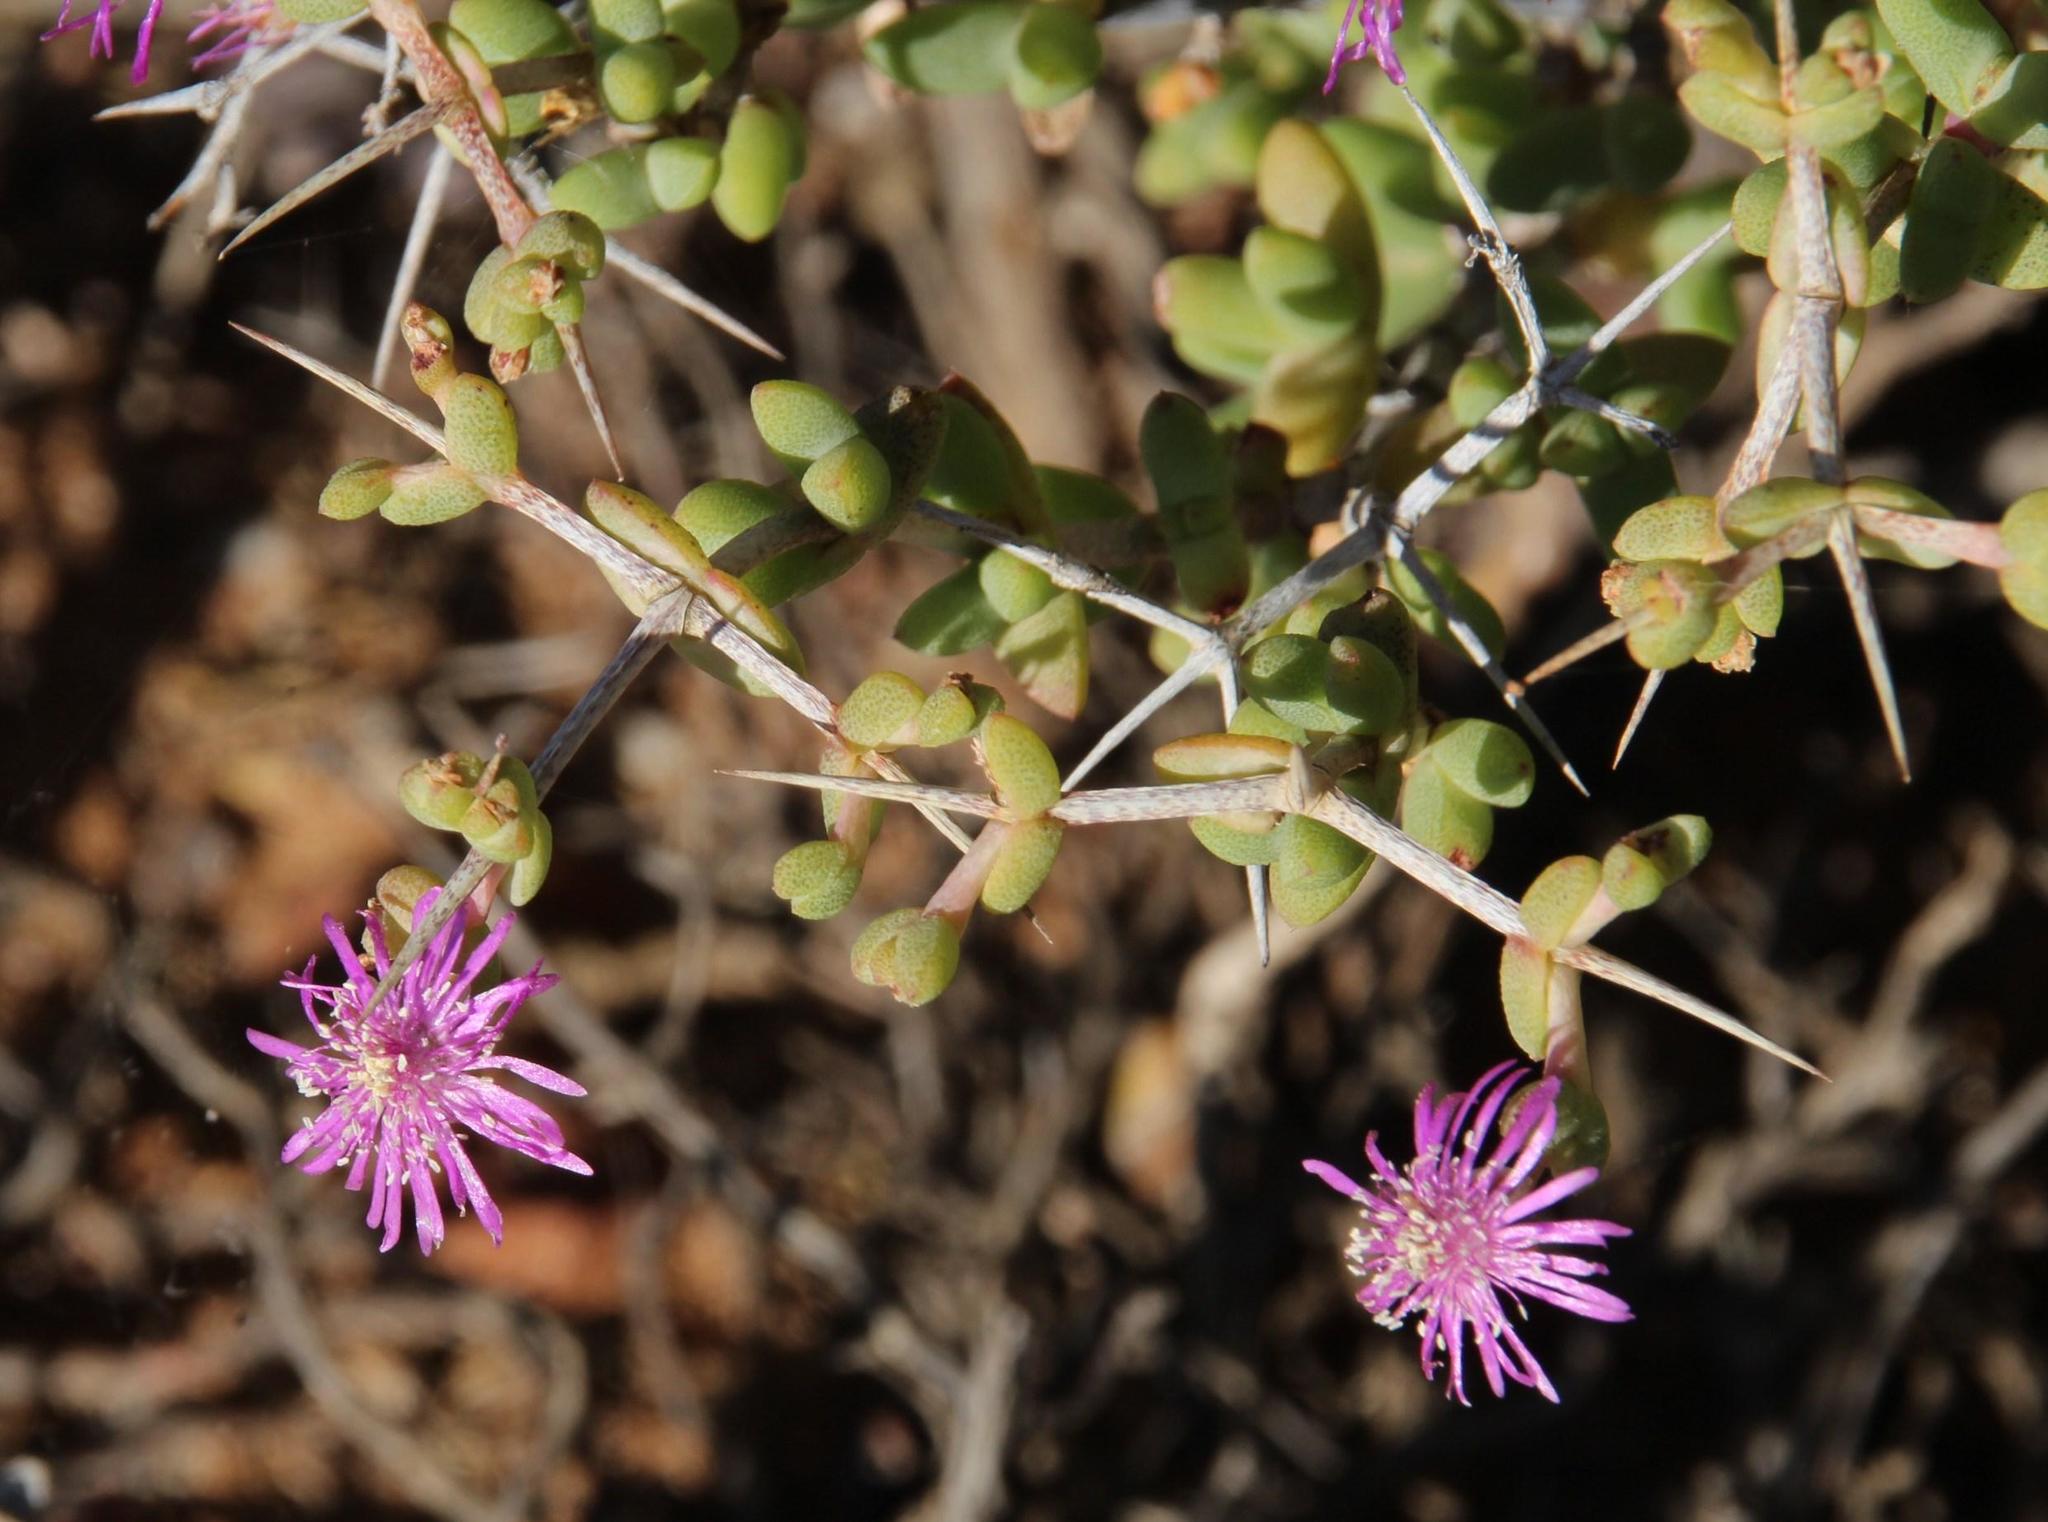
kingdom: Plantae
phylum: Tracheophyta
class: Magnoliopsida
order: Caryophyllales
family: Aizoaceae
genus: Ruschia
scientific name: Ruschia cradockensis
